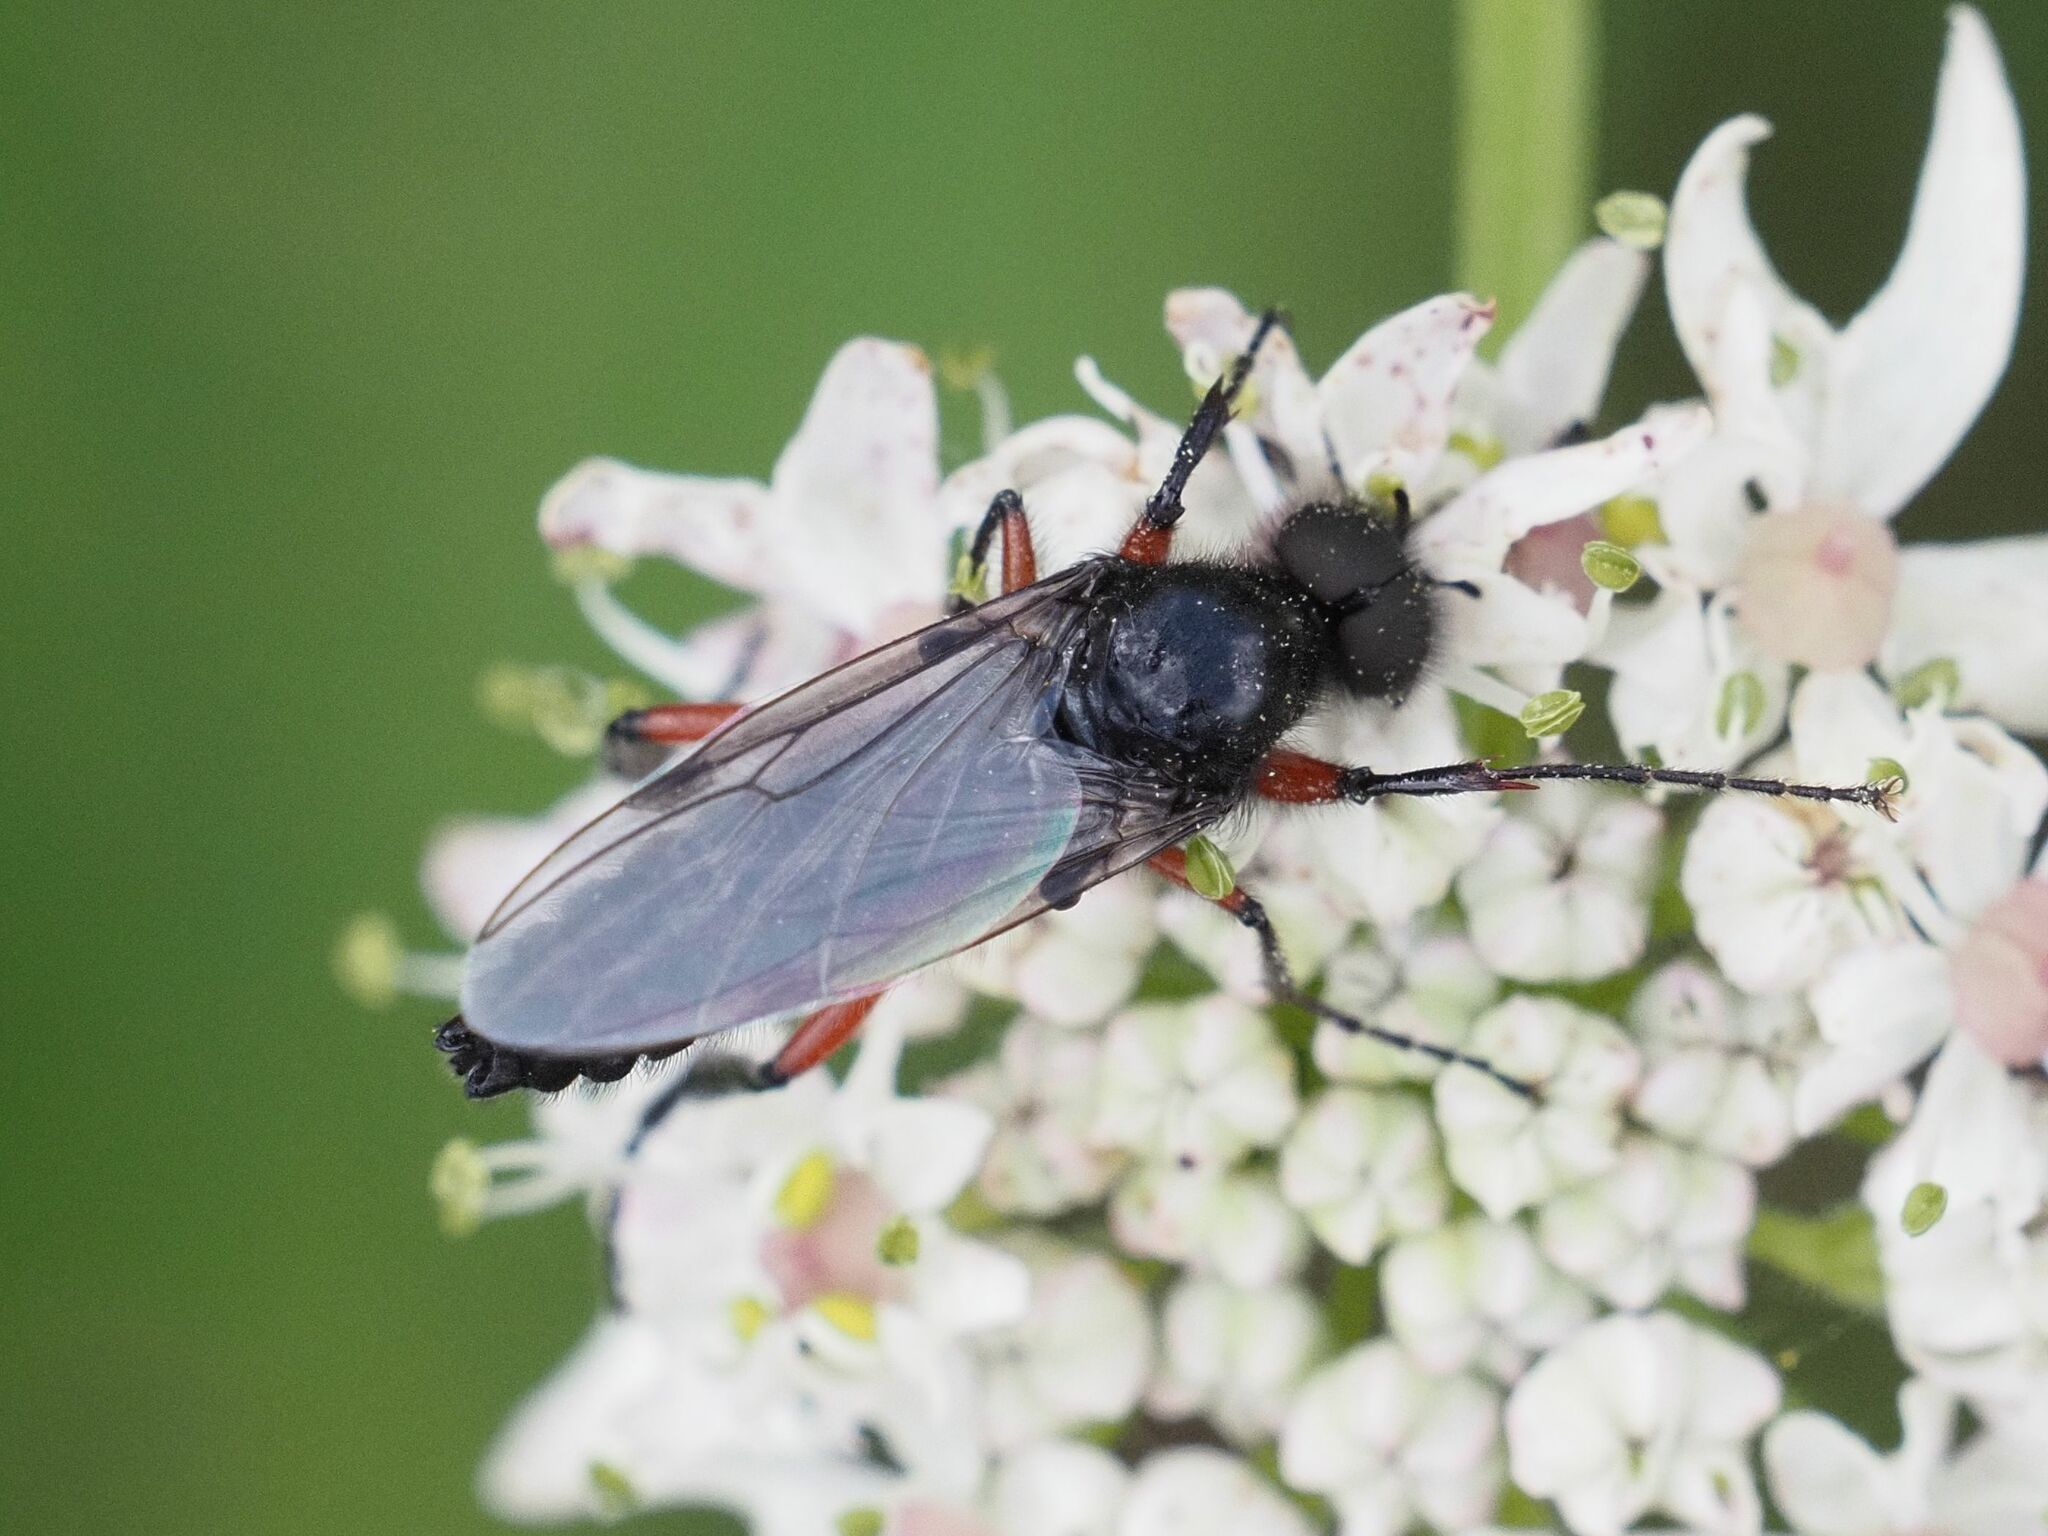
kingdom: Animalia
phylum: Arthropoda
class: Insecta
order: Diptera
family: Bibionidae
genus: Bibio
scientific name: Bibio pomonae
